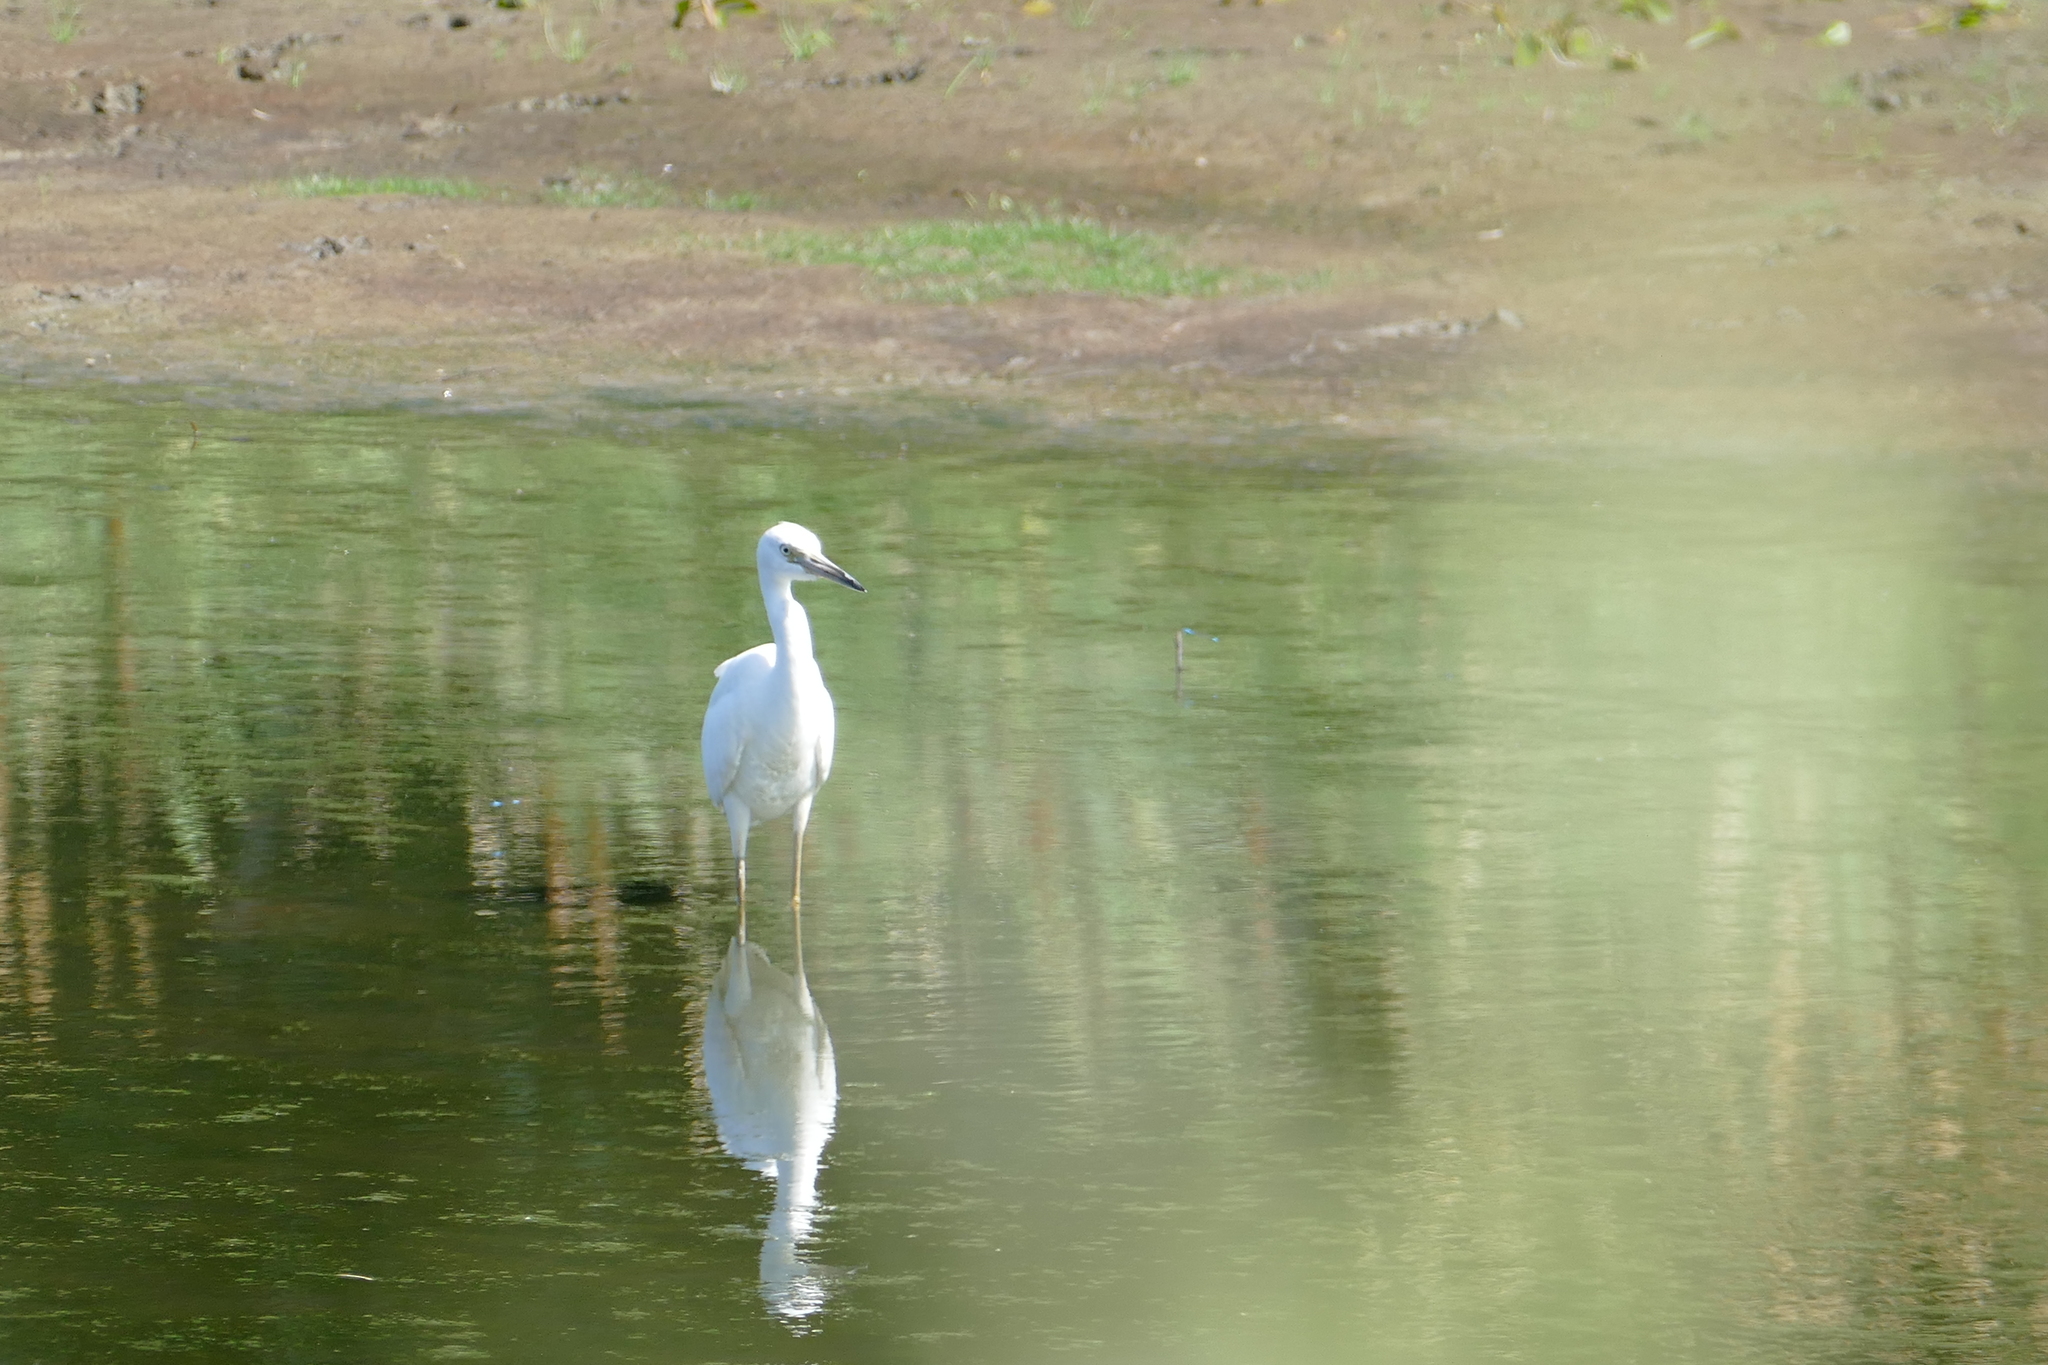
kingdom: Animalia
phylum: Chordata
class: Aves
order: Pelecaniformes
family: Ardeidae
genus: Egretta
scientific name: Egretta caerulea
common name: Little blue heron
